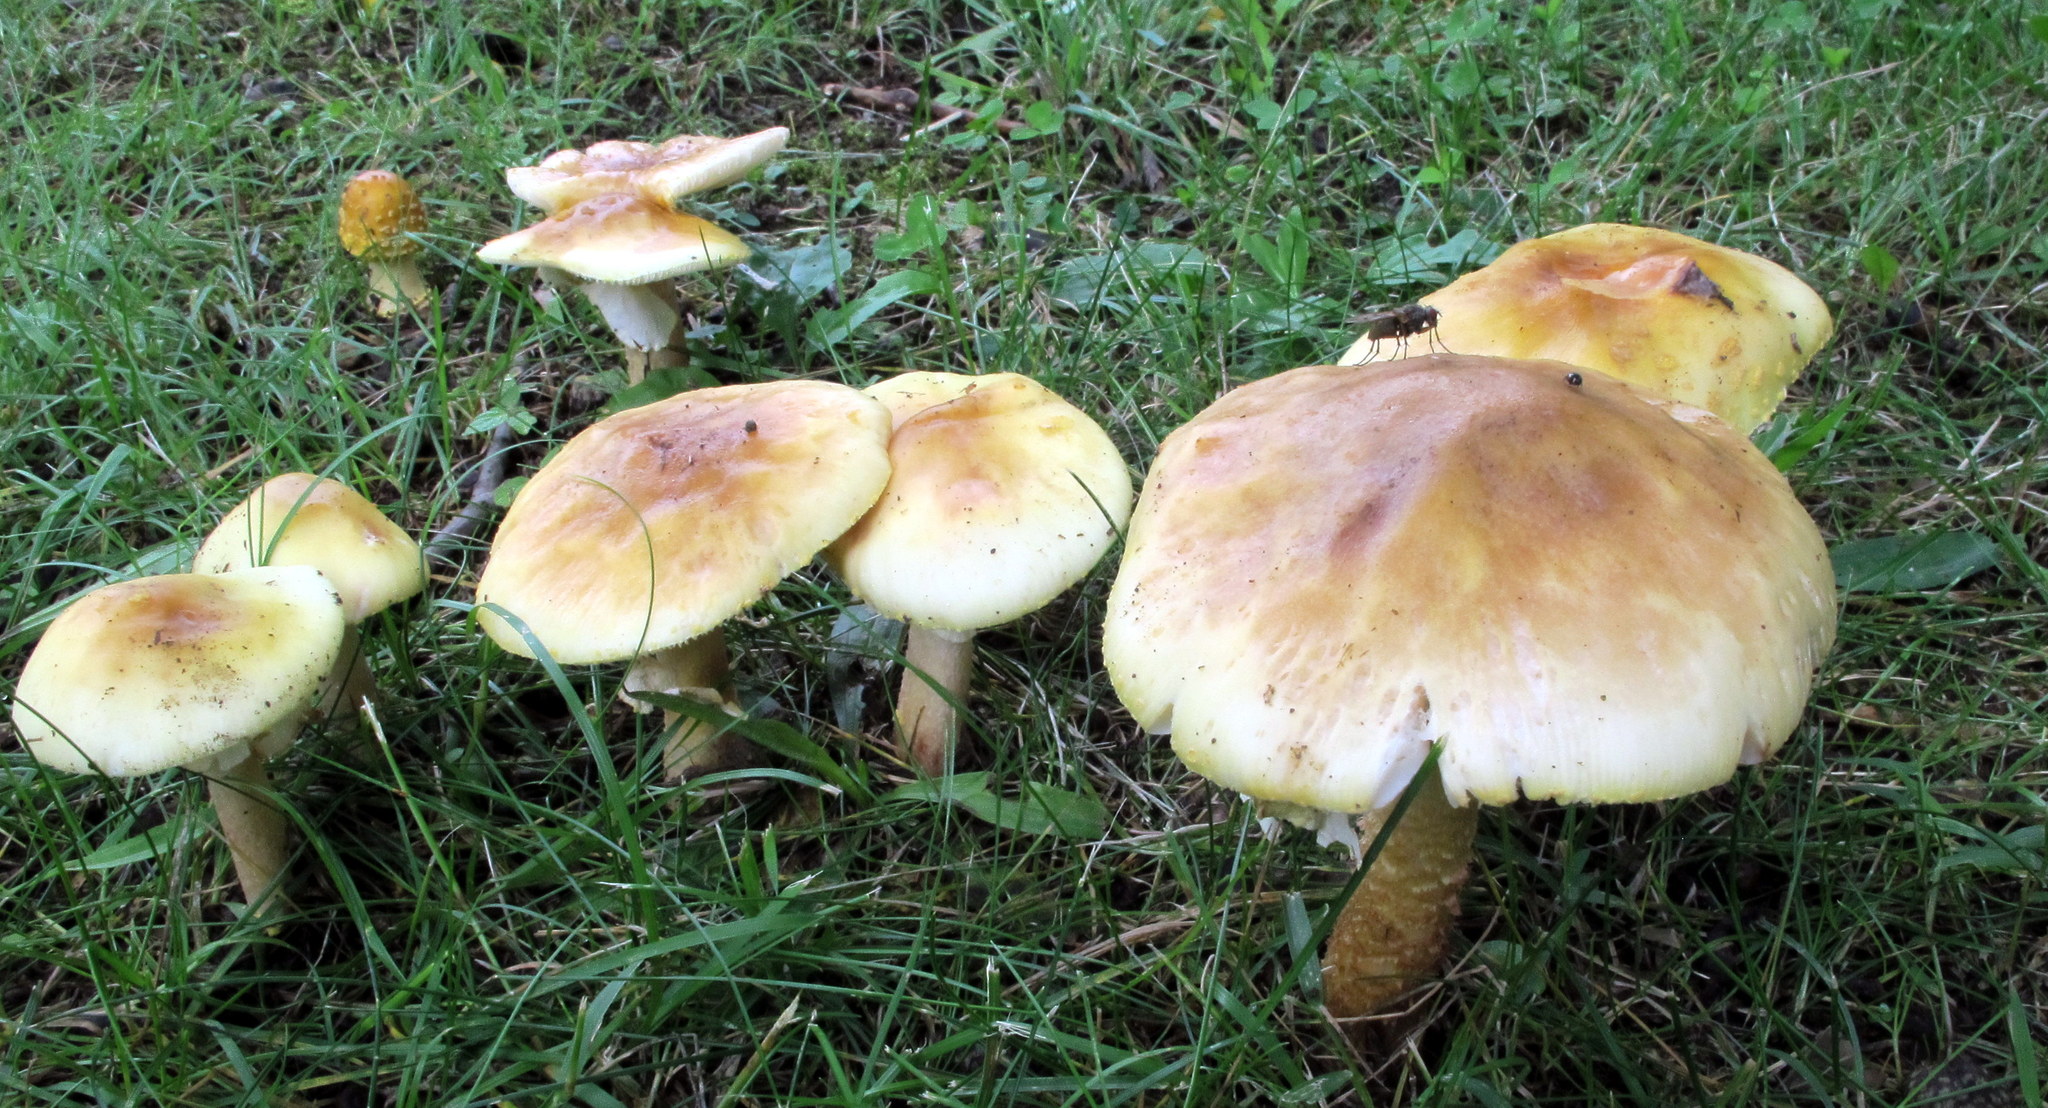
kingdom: Fungi
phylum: Basidiomycota
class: Agaricomycetes
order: Agaricales
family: Amanitaceae
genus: Amanita
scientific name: Amanita flavorubens
